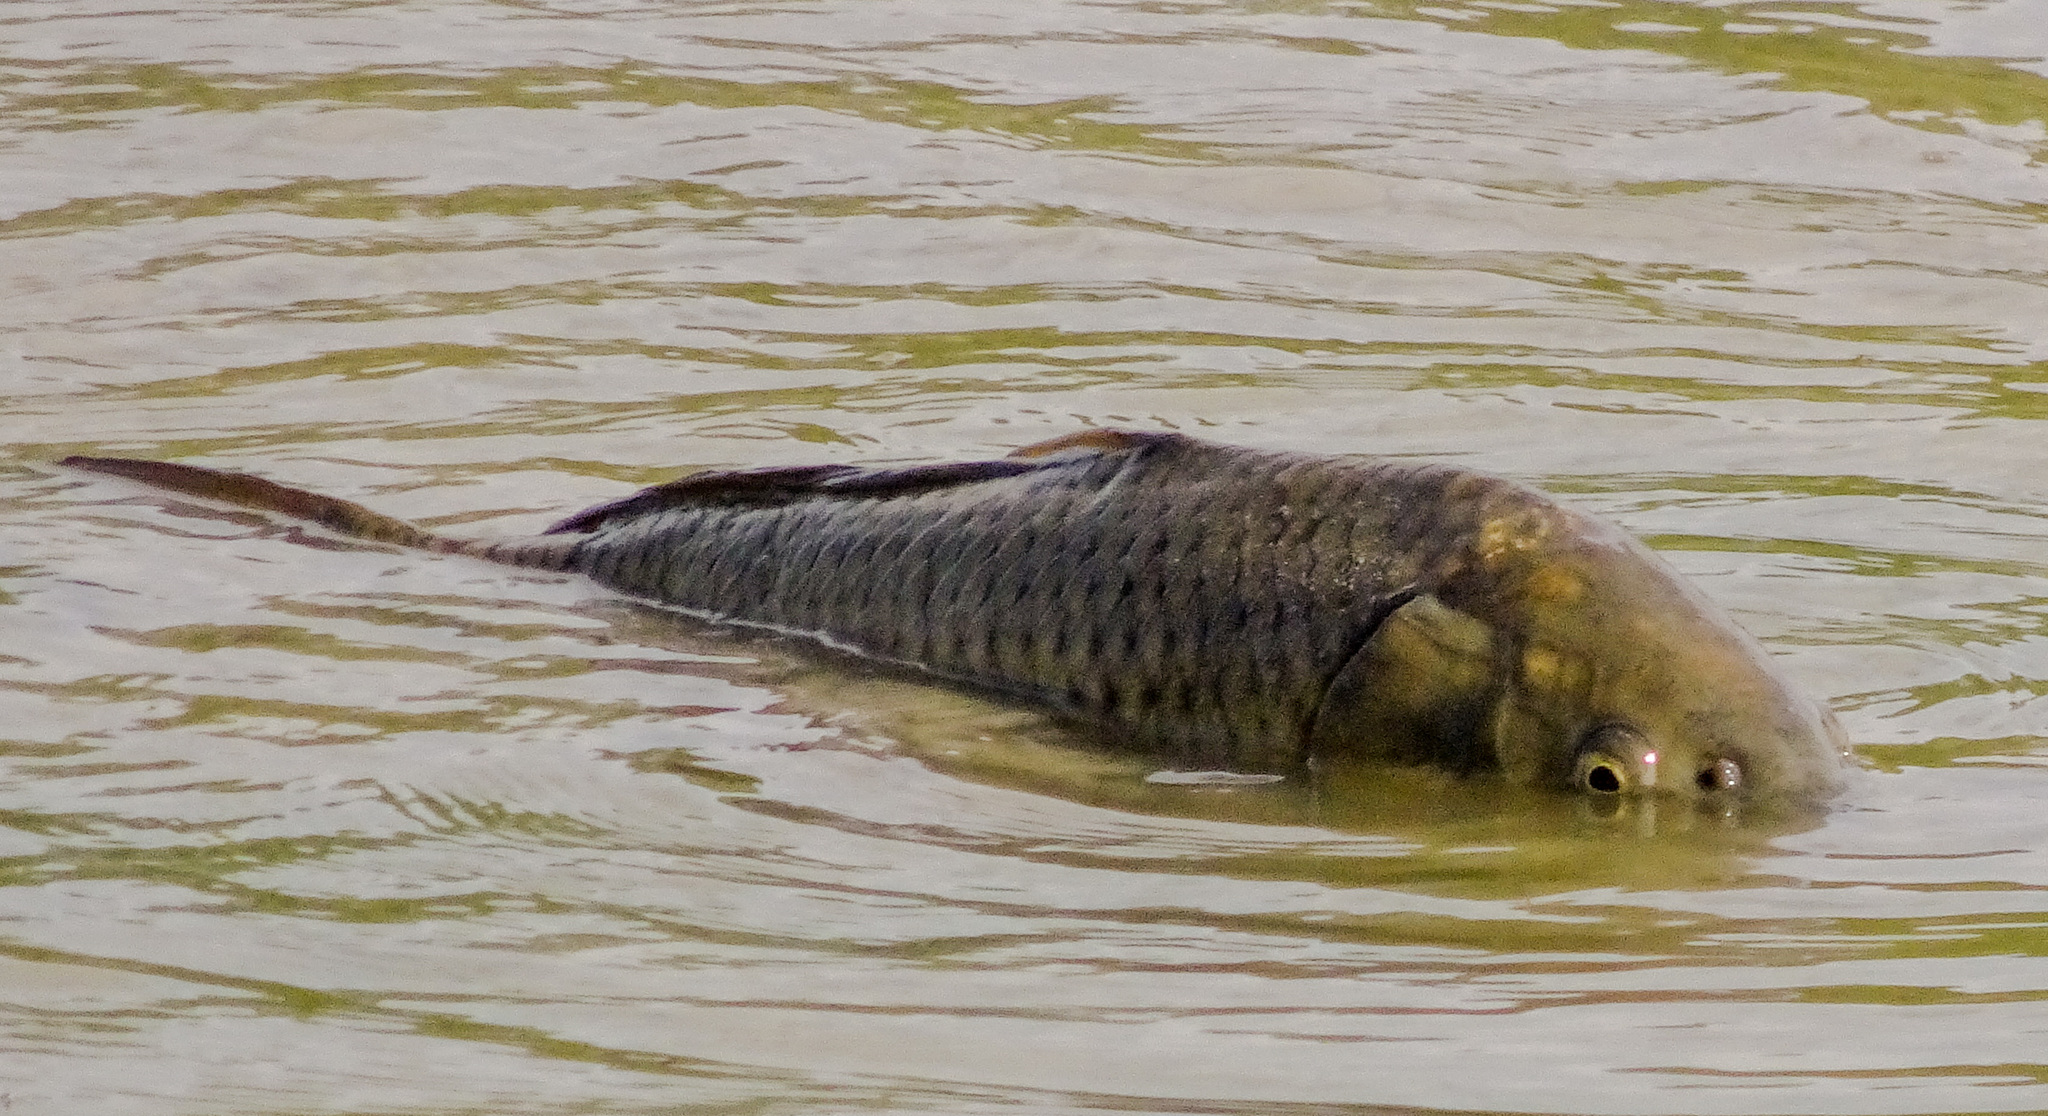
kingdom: Animalia
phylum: Chordata
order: Cypriniformes
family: Cyprinidae
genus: Cyprinus
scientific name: Cyprinus carpio
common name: Common carp
